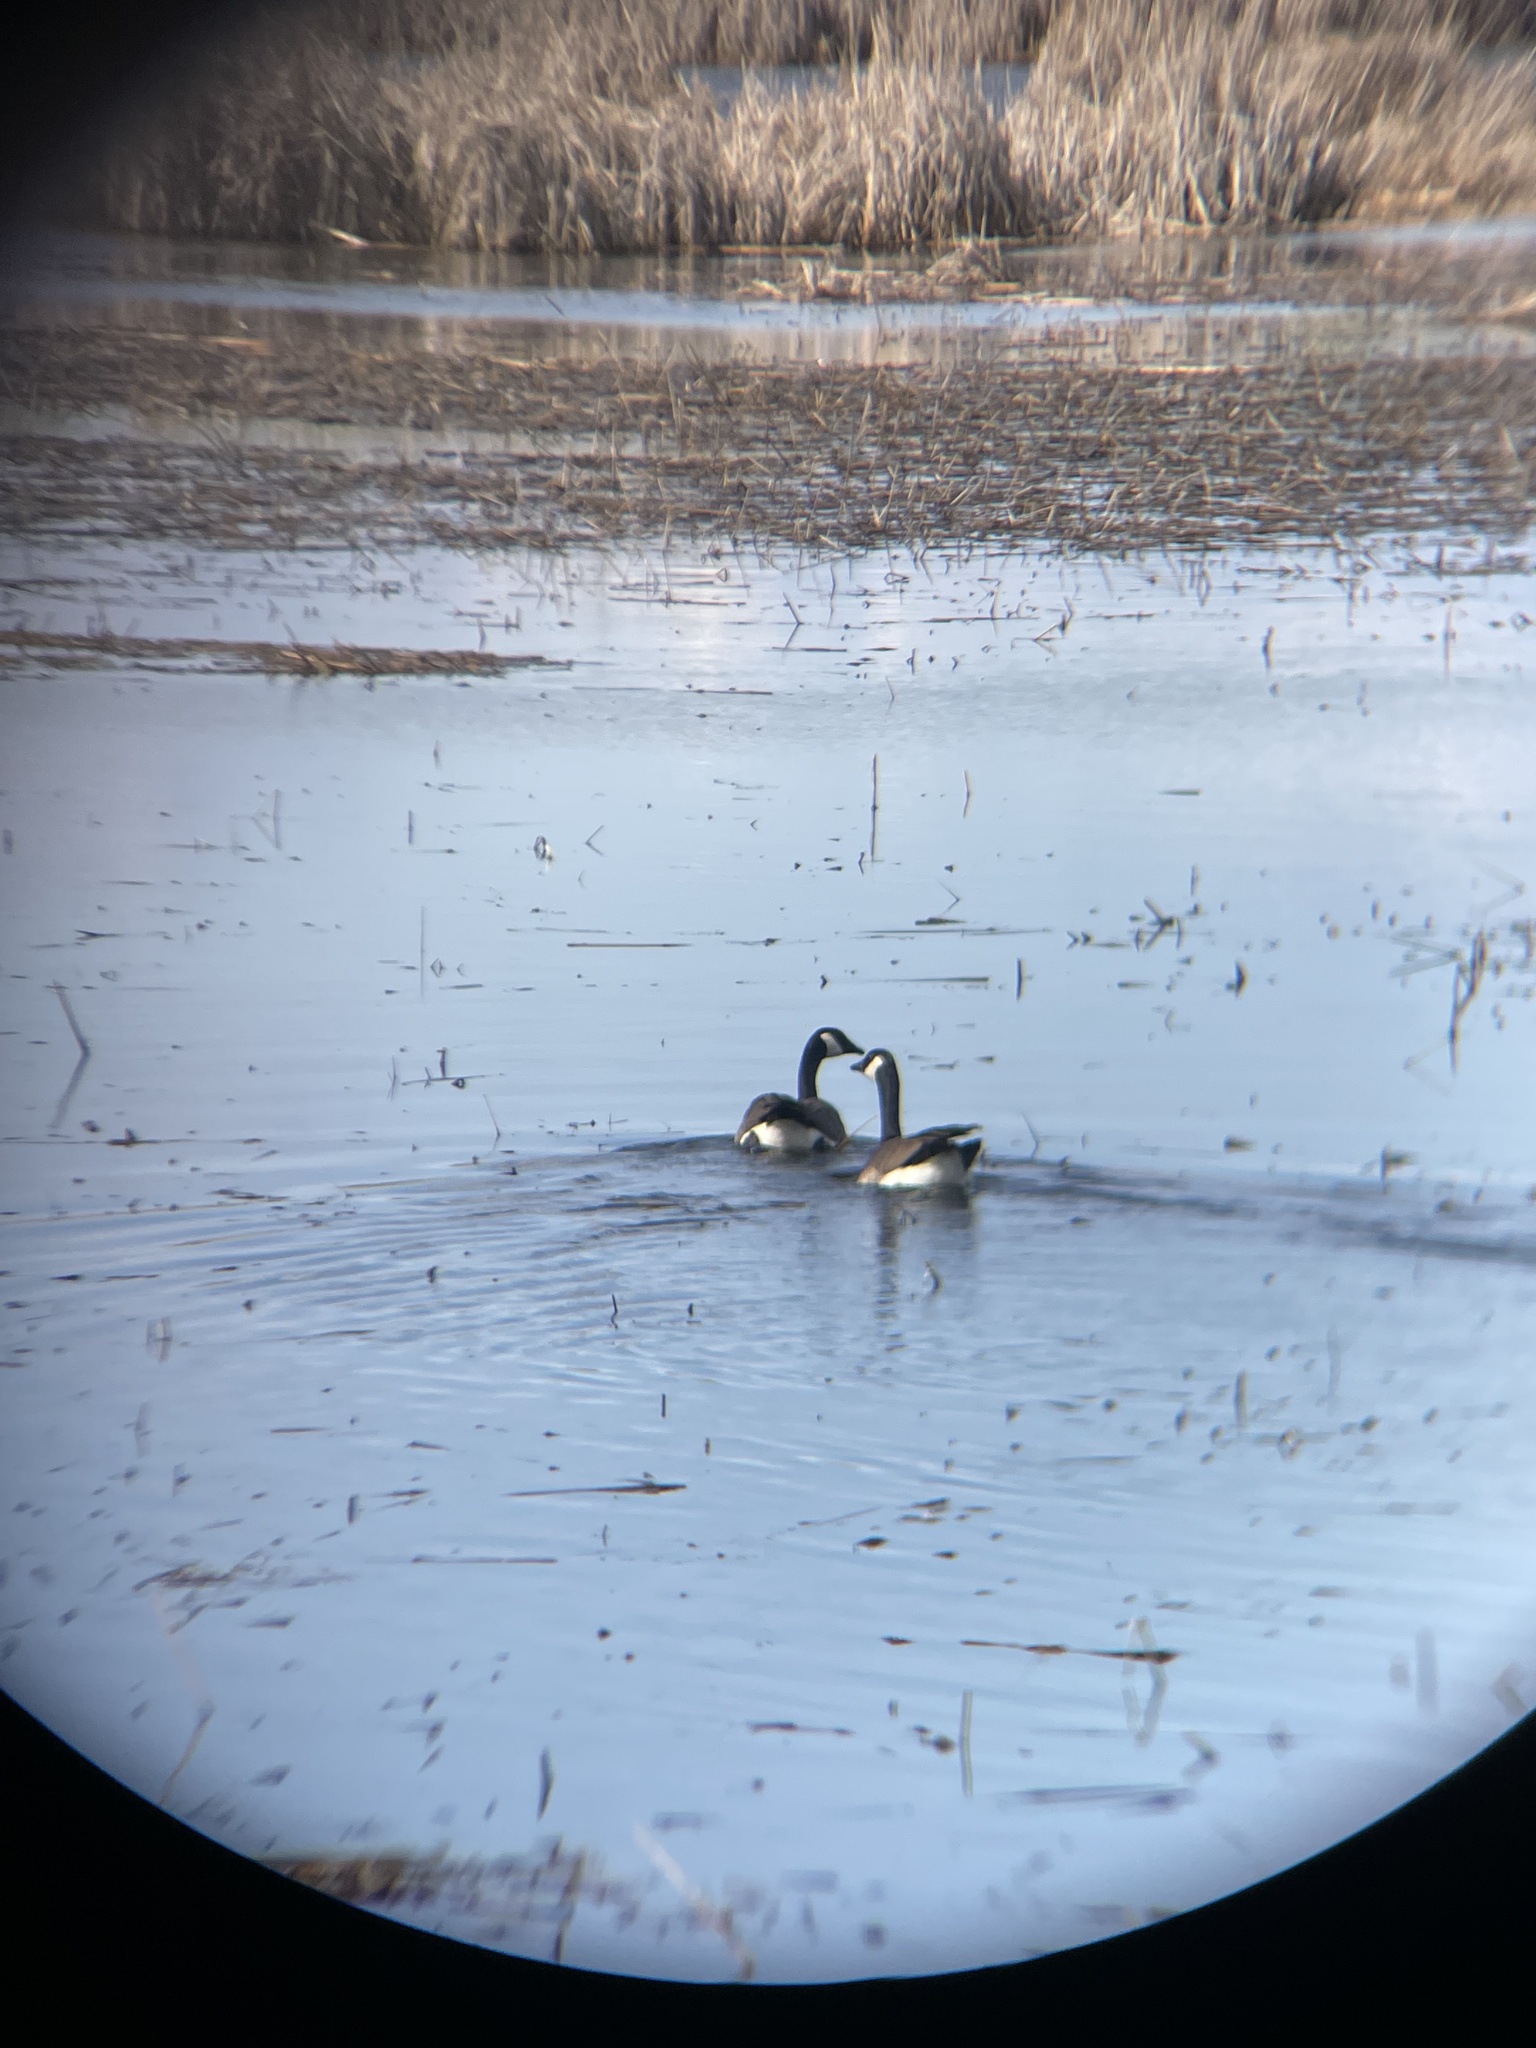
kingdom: Animalia
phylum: Chordata
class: Aves
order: Anseriformes
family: Anatidae
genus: Branta
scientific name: Branta canadensis
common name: Canada goose
